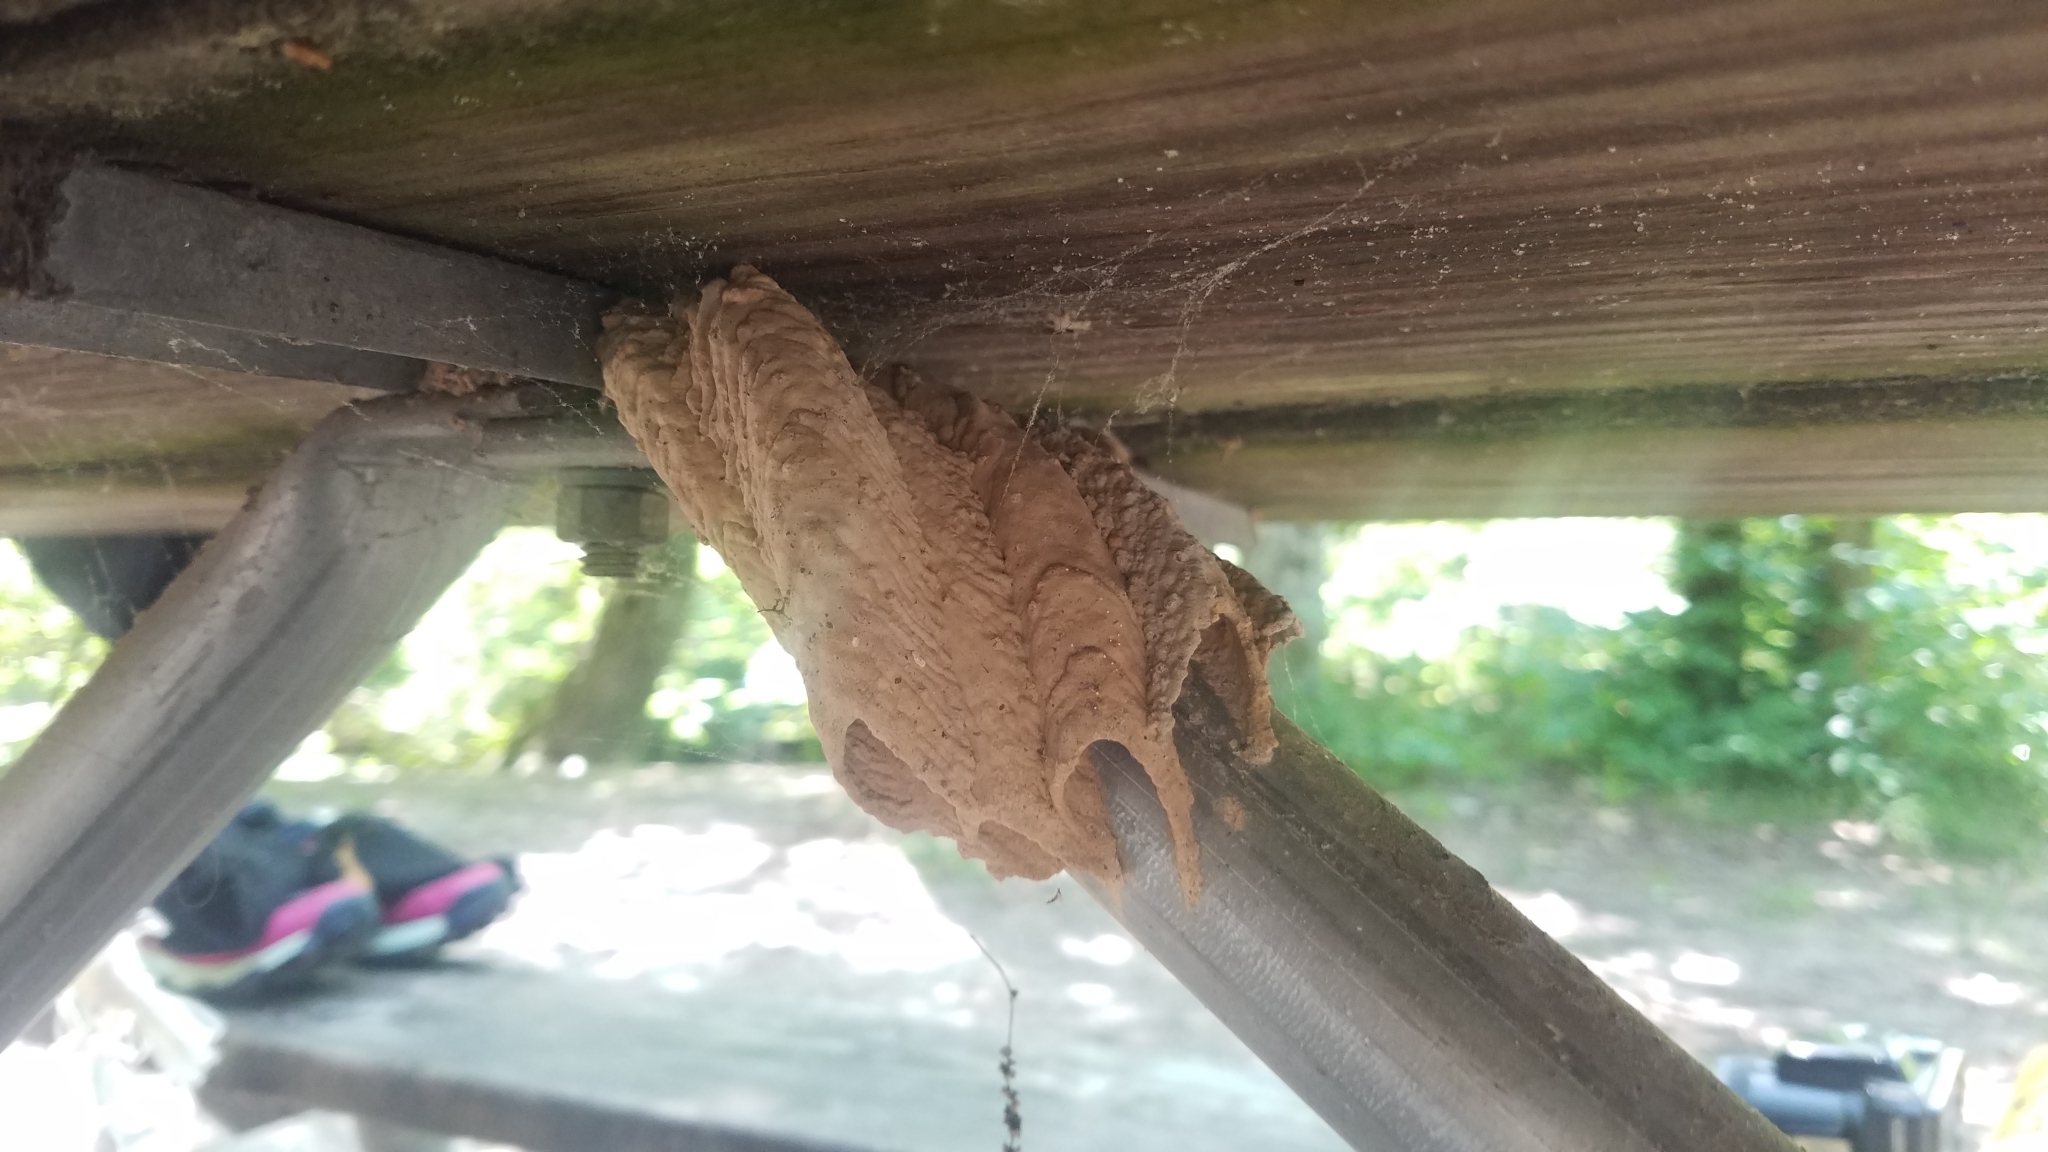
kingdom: Animalia
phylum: Arthropoda
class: Insecta
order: Hymenoptera
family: Crabronidae
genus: Trypoxylon
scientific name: Trypoxylon politum
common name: Organ-pipe mud-dauber wasp
